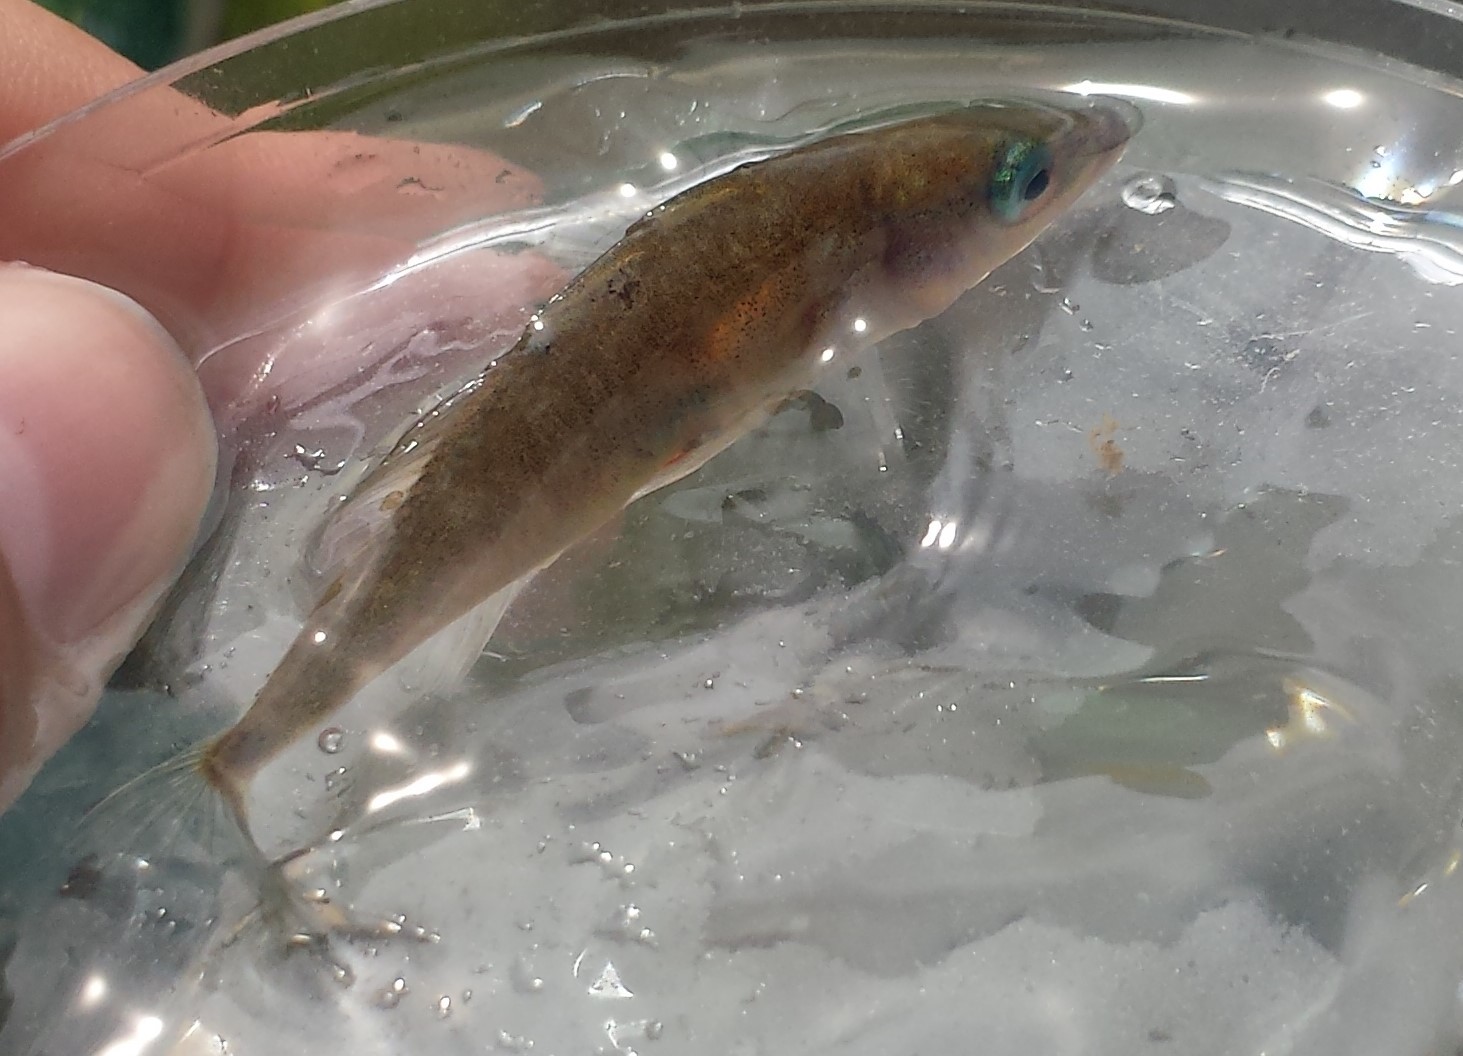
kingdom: Animalia
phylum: Chordata
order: Gasterosteiformes
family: Gasterosteidae
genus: Gasterosteus
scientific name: Gasterosteus aculeatus
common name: Three-spined stickleback
